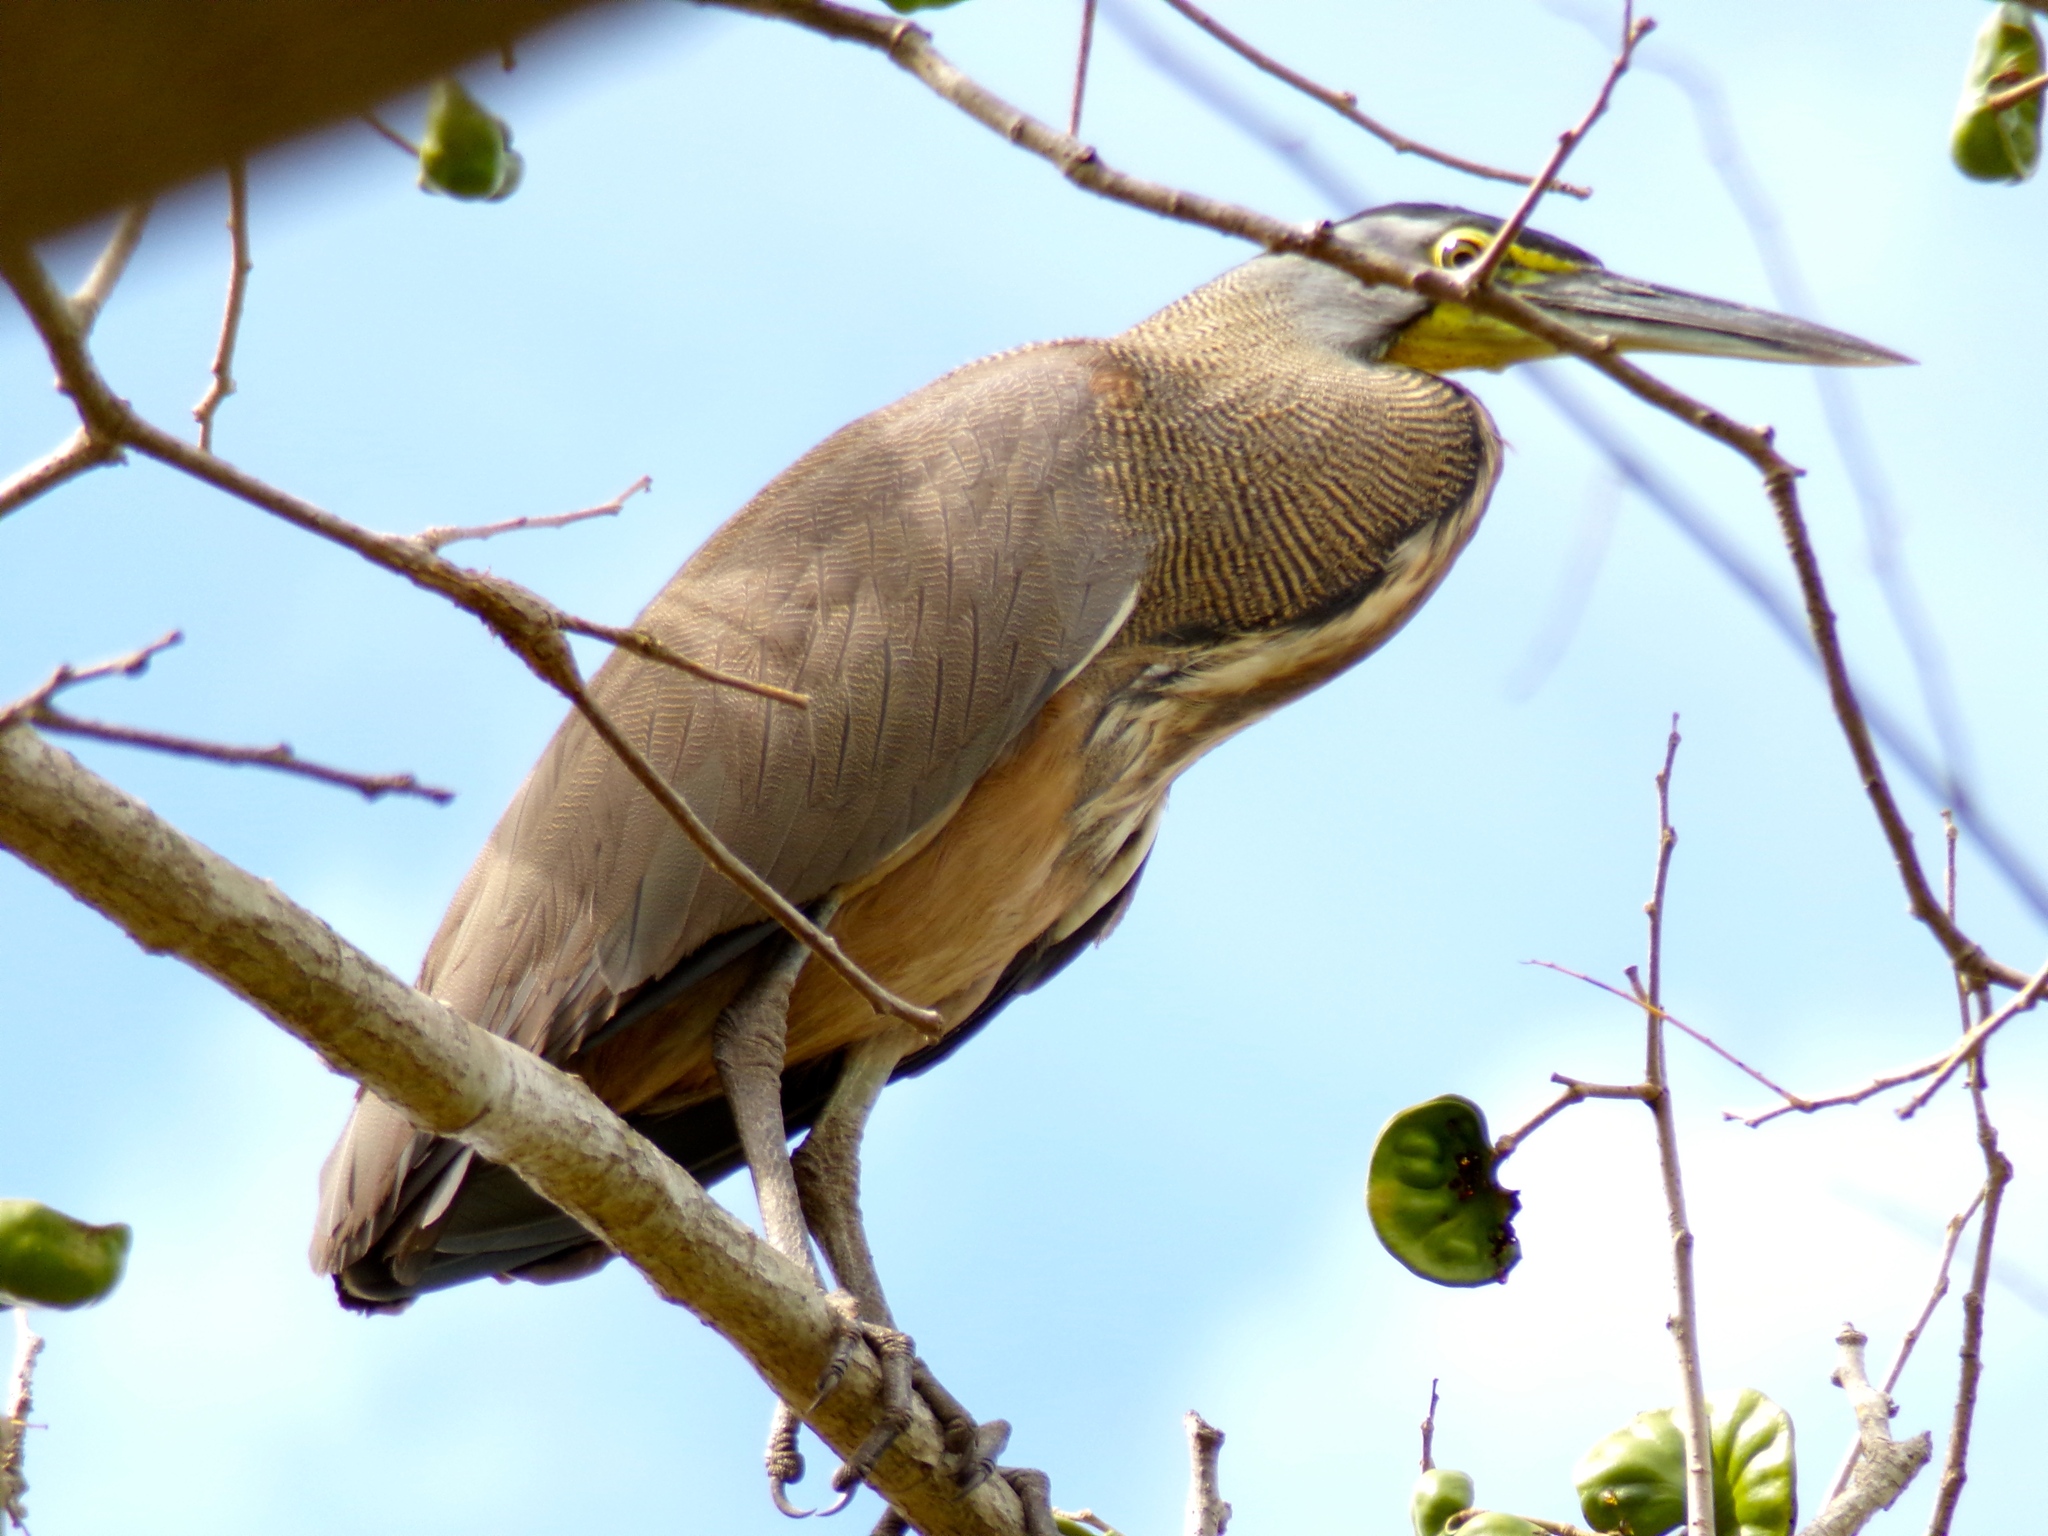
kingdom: Animalia
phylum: Chordata
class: Aves
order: Pelecaniformes
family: Ardeidae
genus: Tigrisoma
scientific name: Tigrisoma mexicanum
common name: Bare-throated tiger-heron
